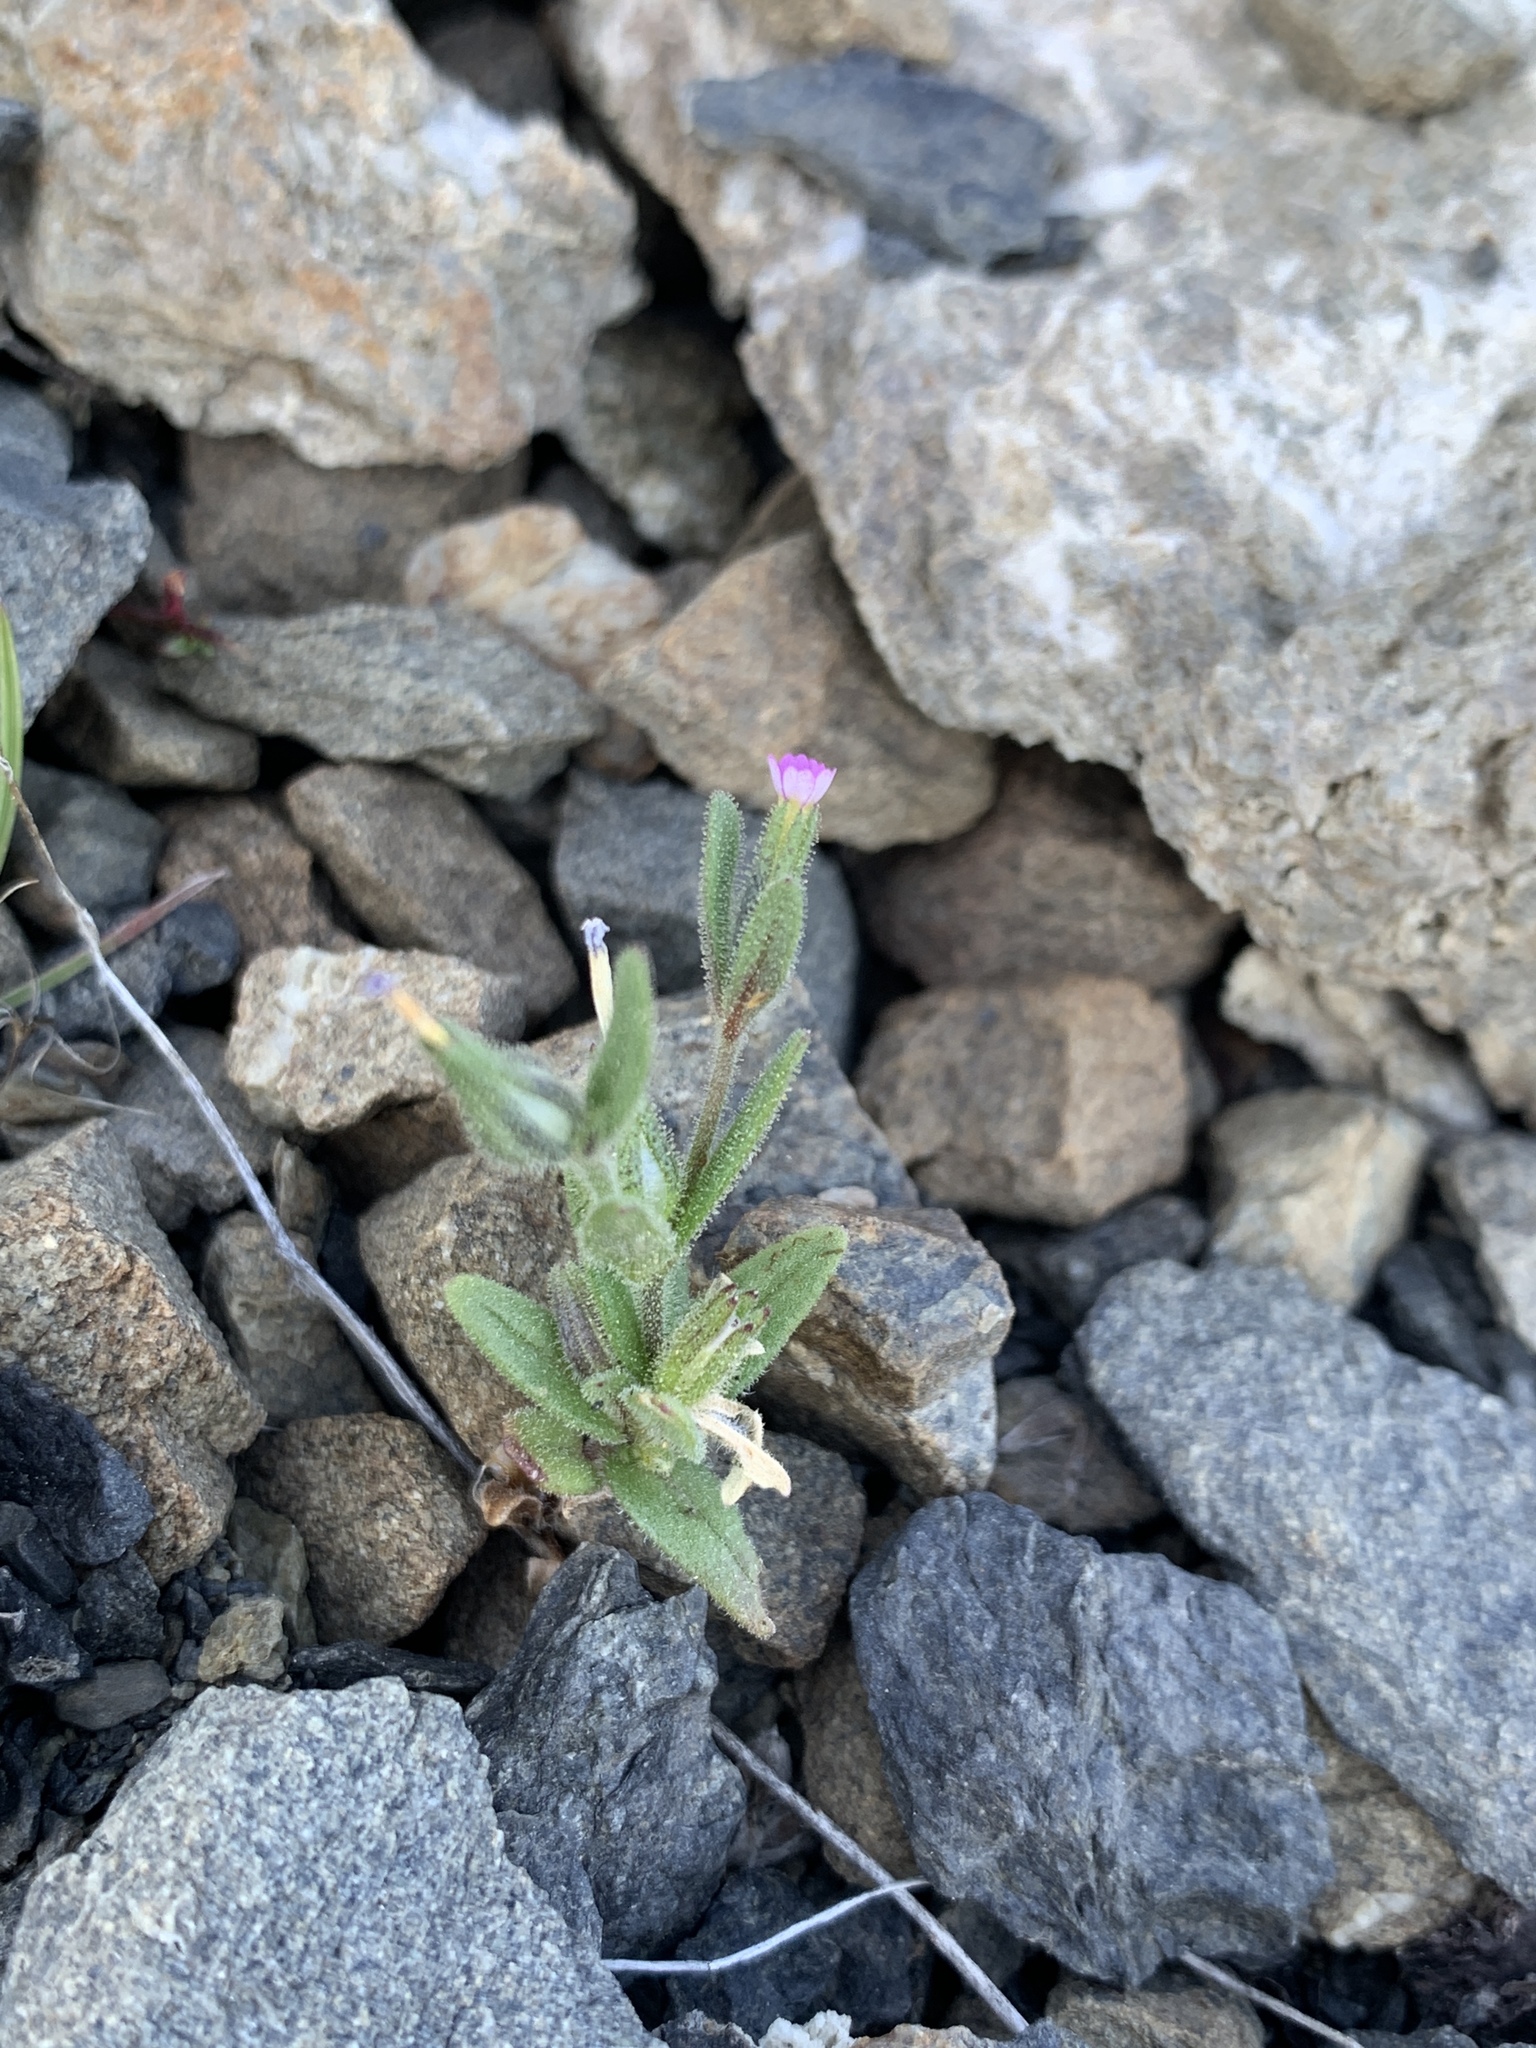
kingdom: Plantae
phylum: Tracheophyta
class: Magnoliopsida
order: Ericales
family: Polemoniaceae
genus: Phlox
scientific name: Phlox gracilis
